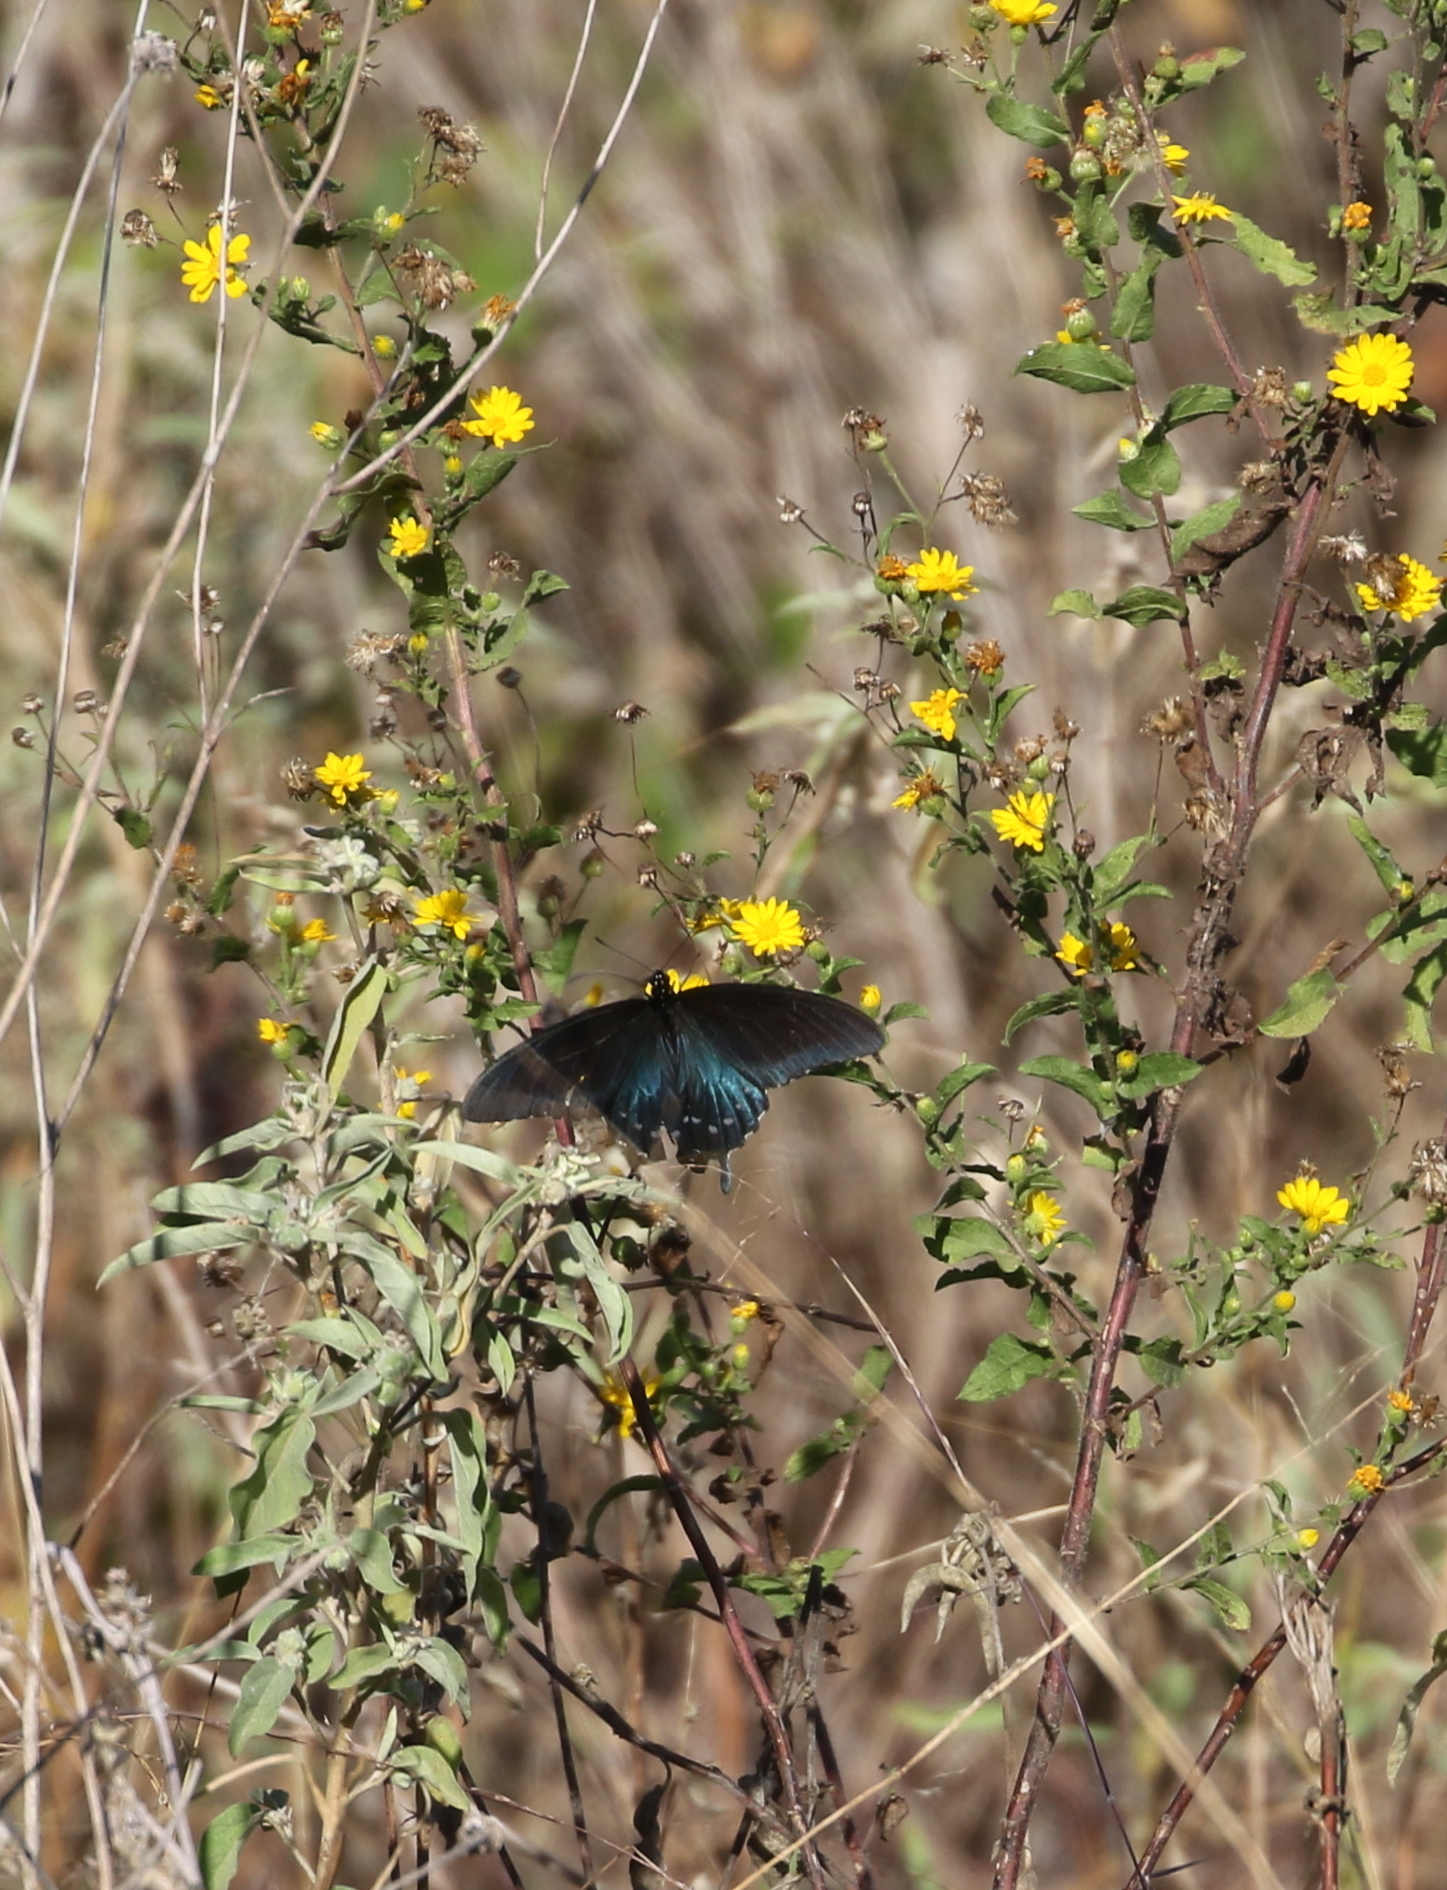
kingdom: Animalia
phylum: Arthropoda
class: Insecta
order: Lepidoptera
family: Papilionidae
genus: Battus
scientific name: Battus philenor
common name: Pipevine swallowtail
